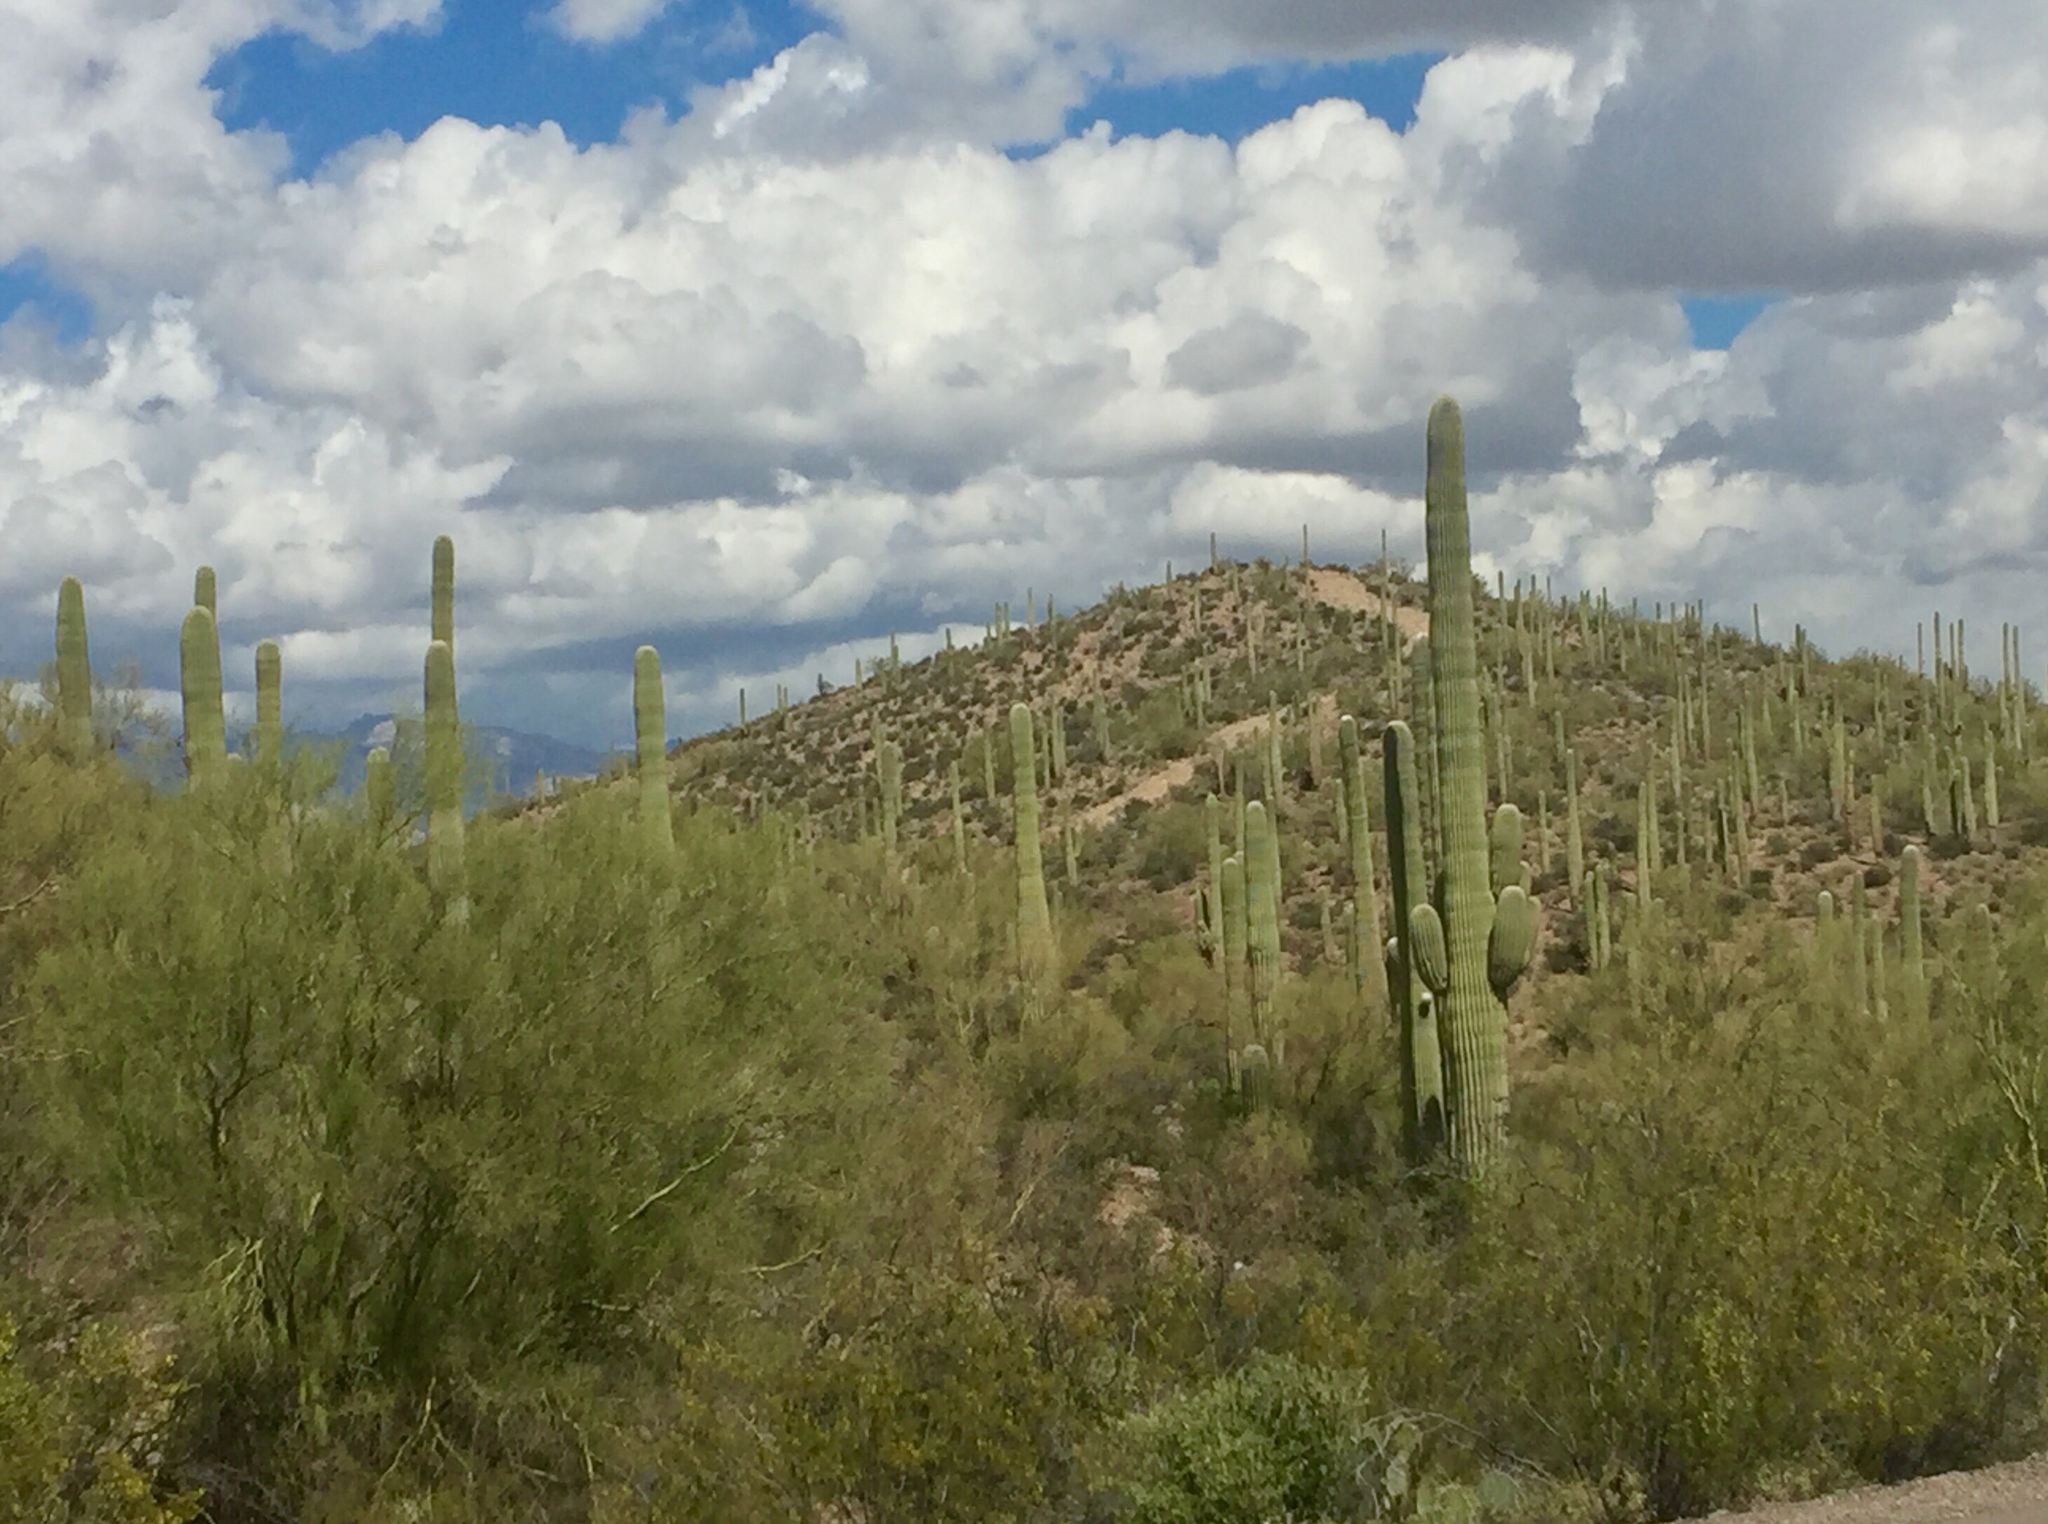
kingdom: Plantae
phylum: Tracheophyta
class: Magnoliopsida
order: Fabales
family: Fabaceae
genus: Parkinsonia
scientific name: Parkinsonia microphylla
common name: Yellow paloverde
